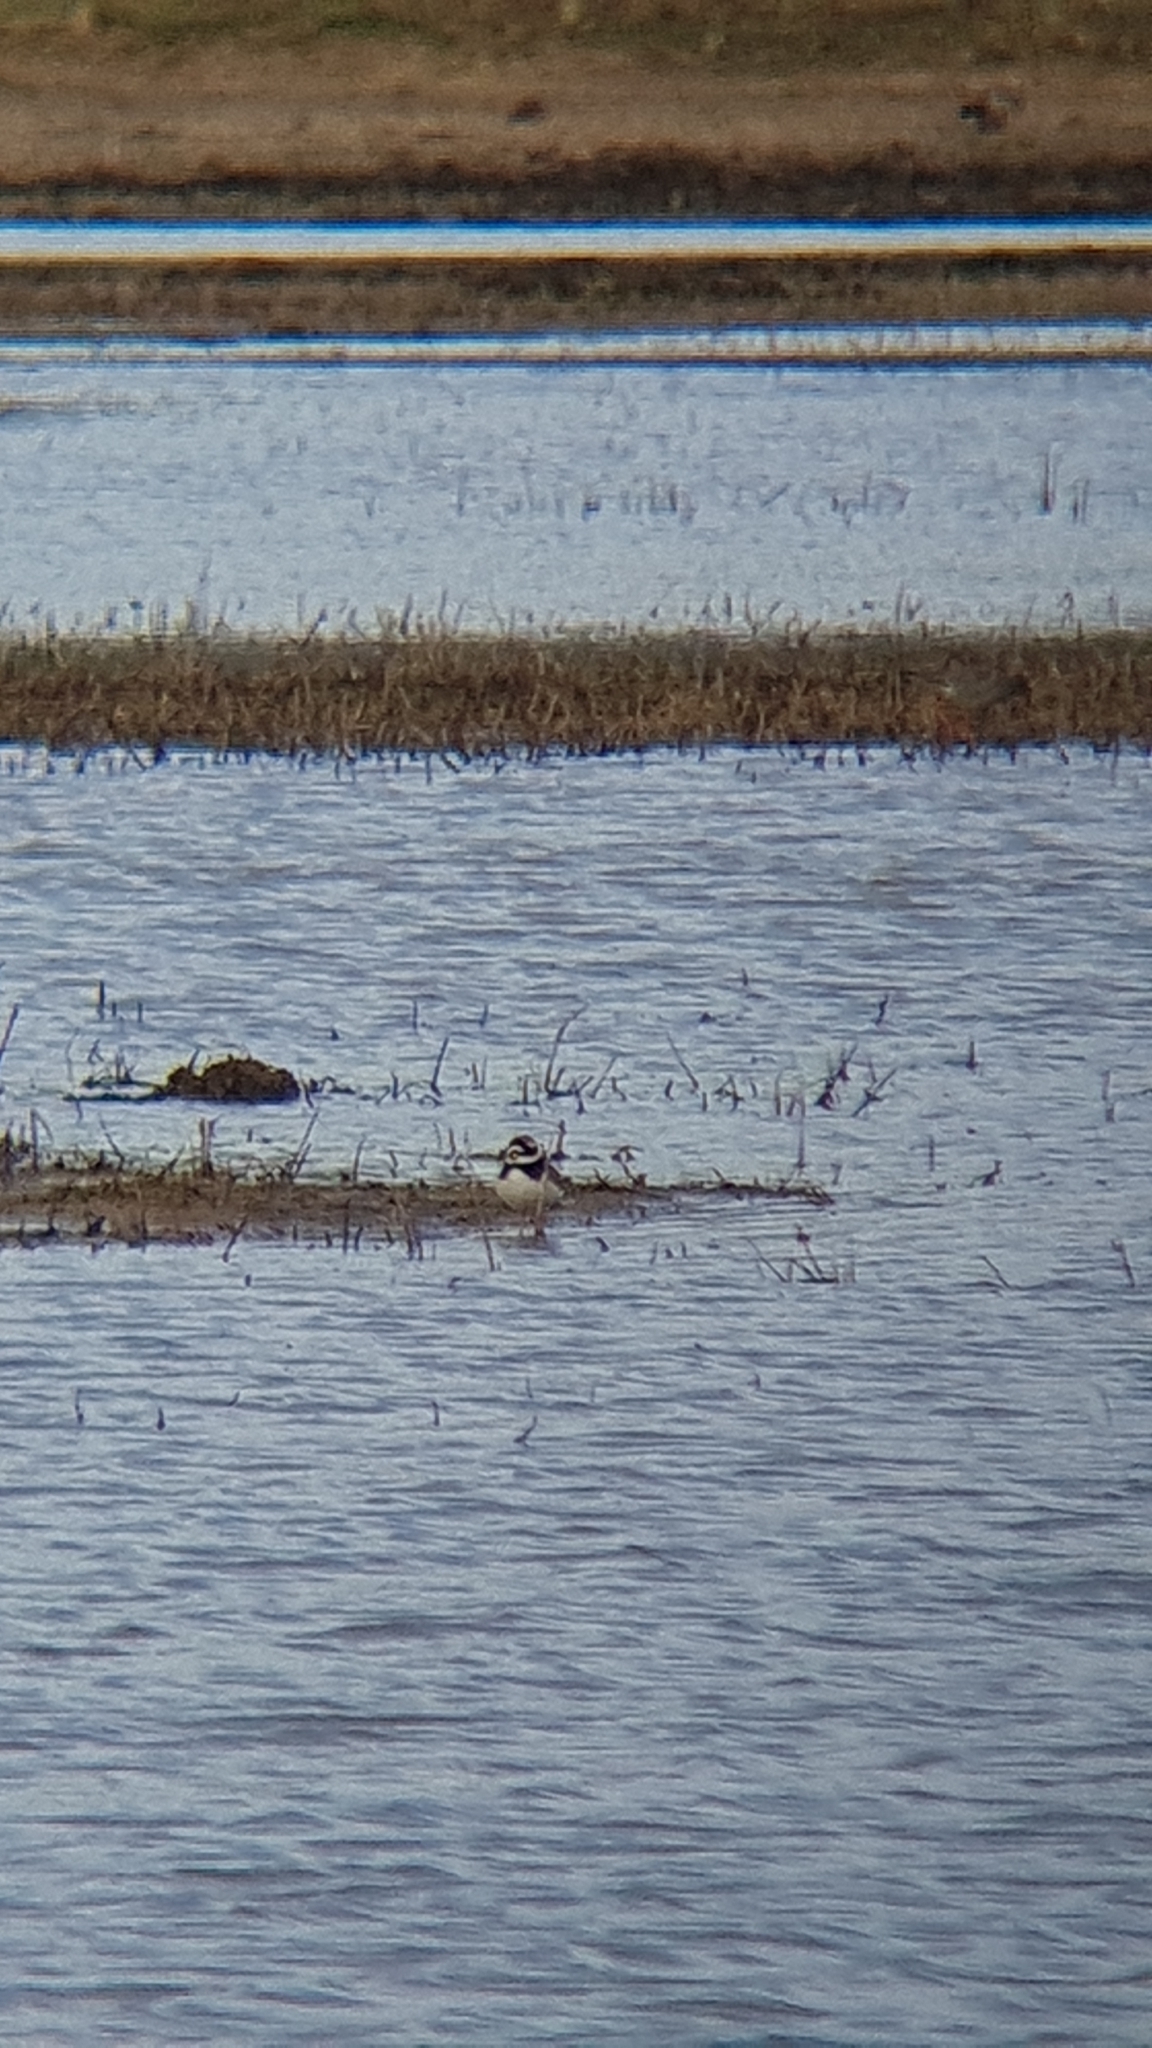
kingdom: Animalia
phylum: Chordata
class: Aves
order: Charadriiformes
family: Charadriidae
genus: Charadrius
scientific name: Charadrius hiaticula
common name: Common ringed plover
